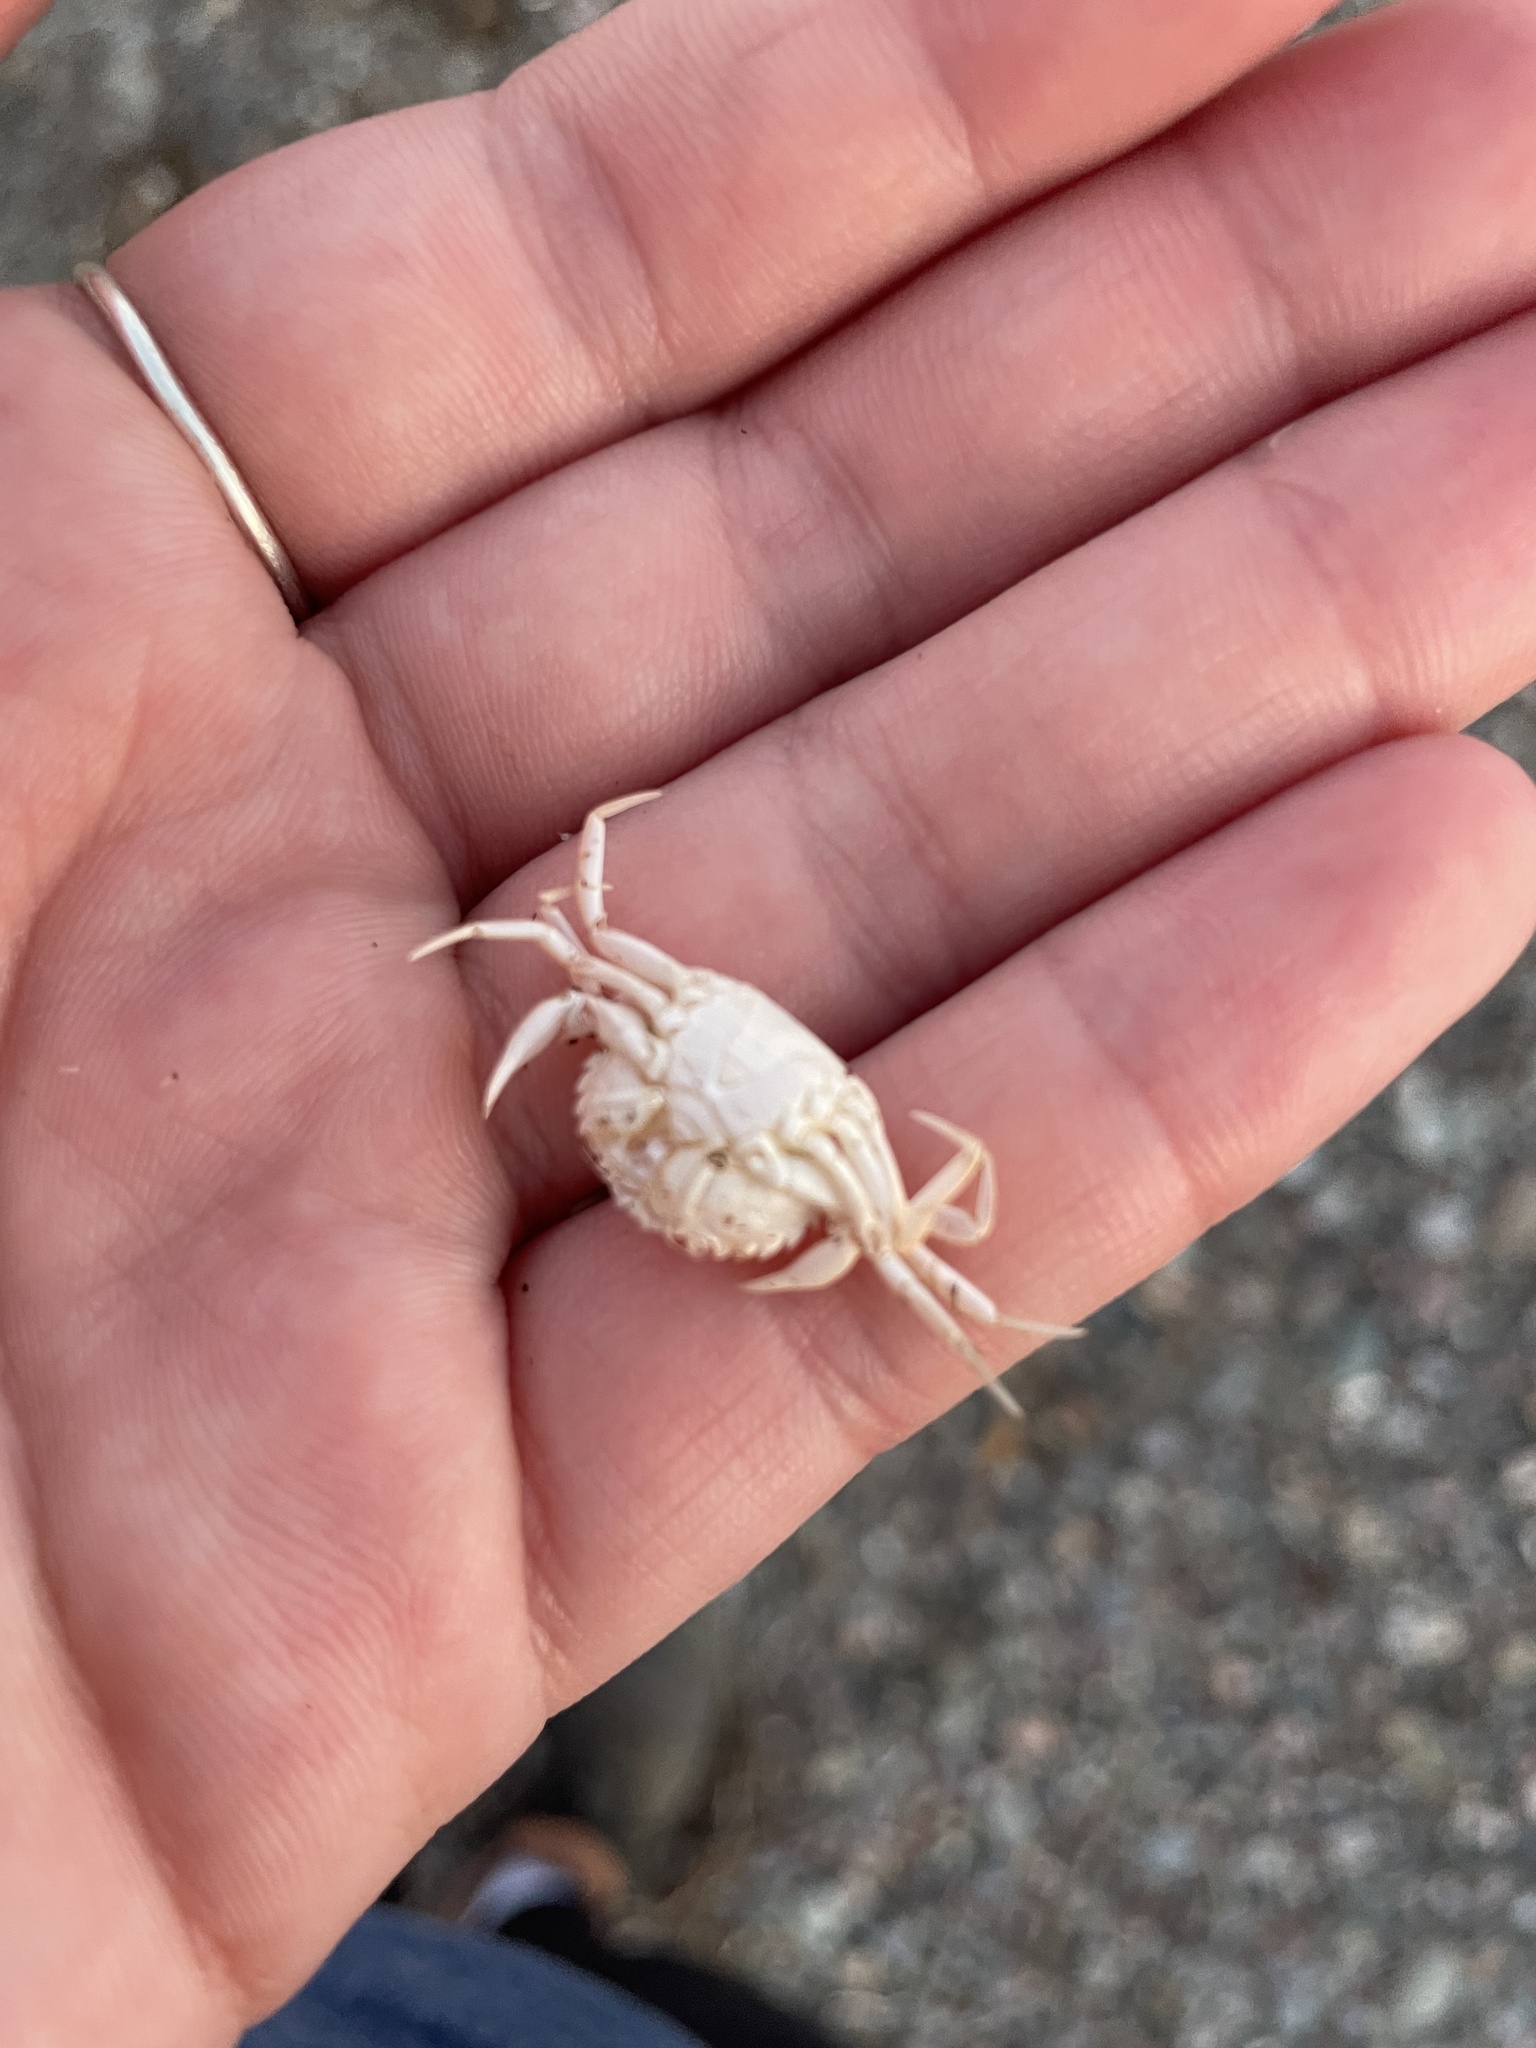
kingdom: Animalia
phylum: Arthropoda
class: Malacostraca
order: Decapoda
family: Carcinidae
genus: Carcinus
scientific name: Carcinus maenas
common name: European green crab
